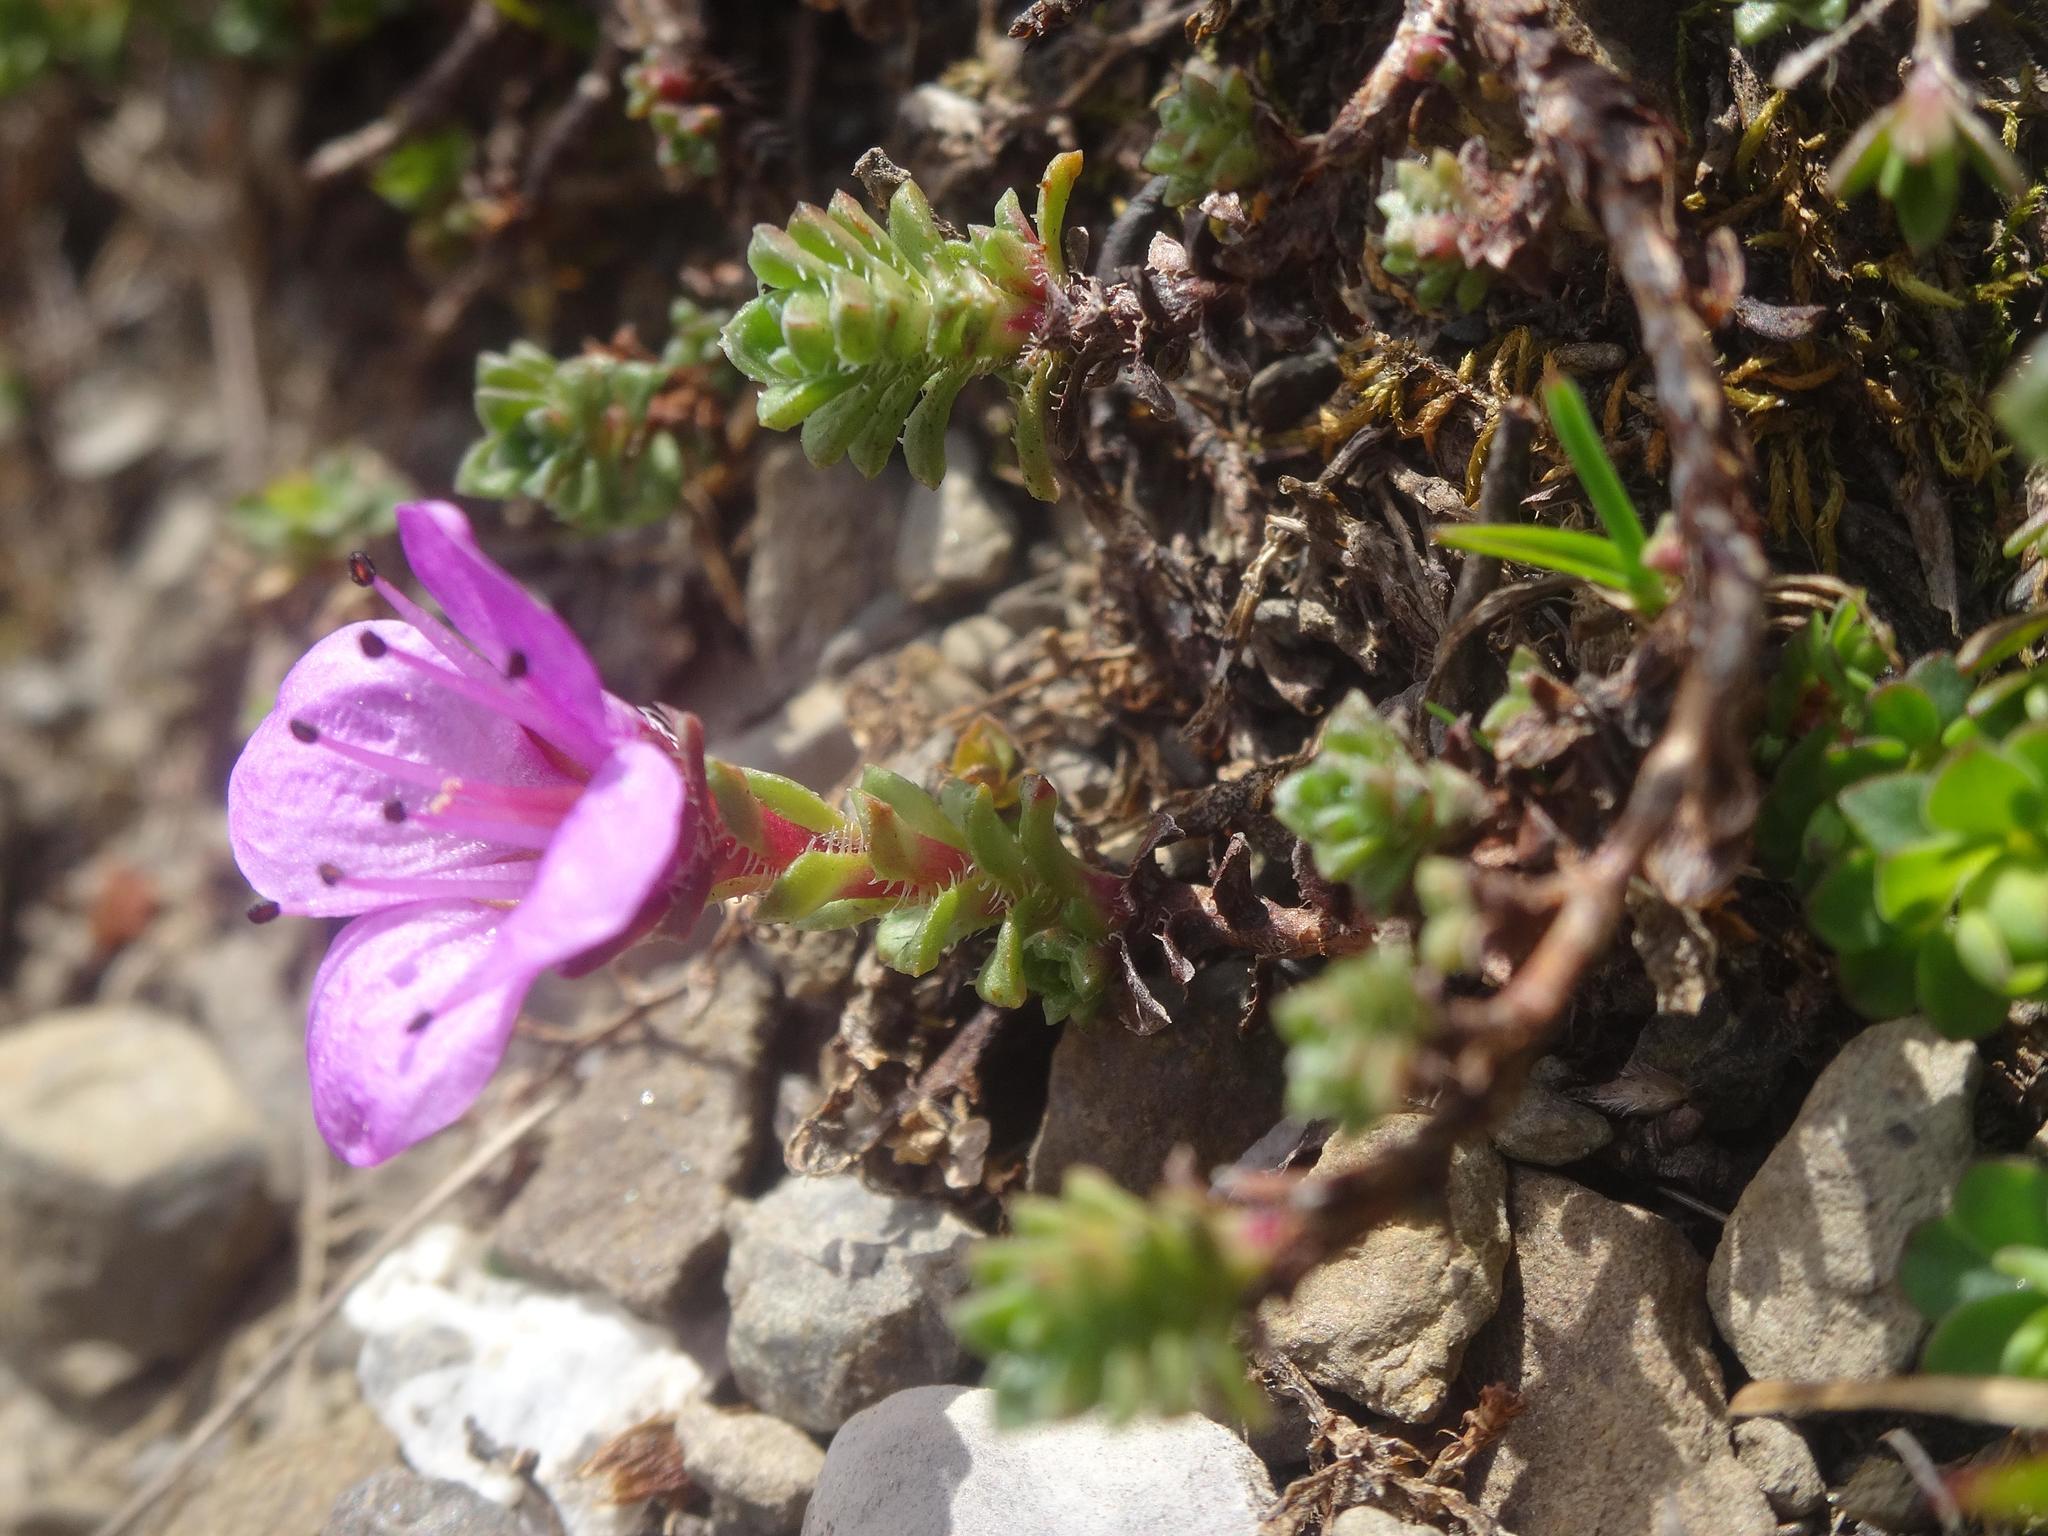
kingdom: Plantae
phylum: Tracheophyta
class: Magnoliopsida
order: Saxifragales
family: Saxifragaceae
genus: Saxifraga
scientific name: Saxifraga oppositifolia
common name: Purple saxifrage
